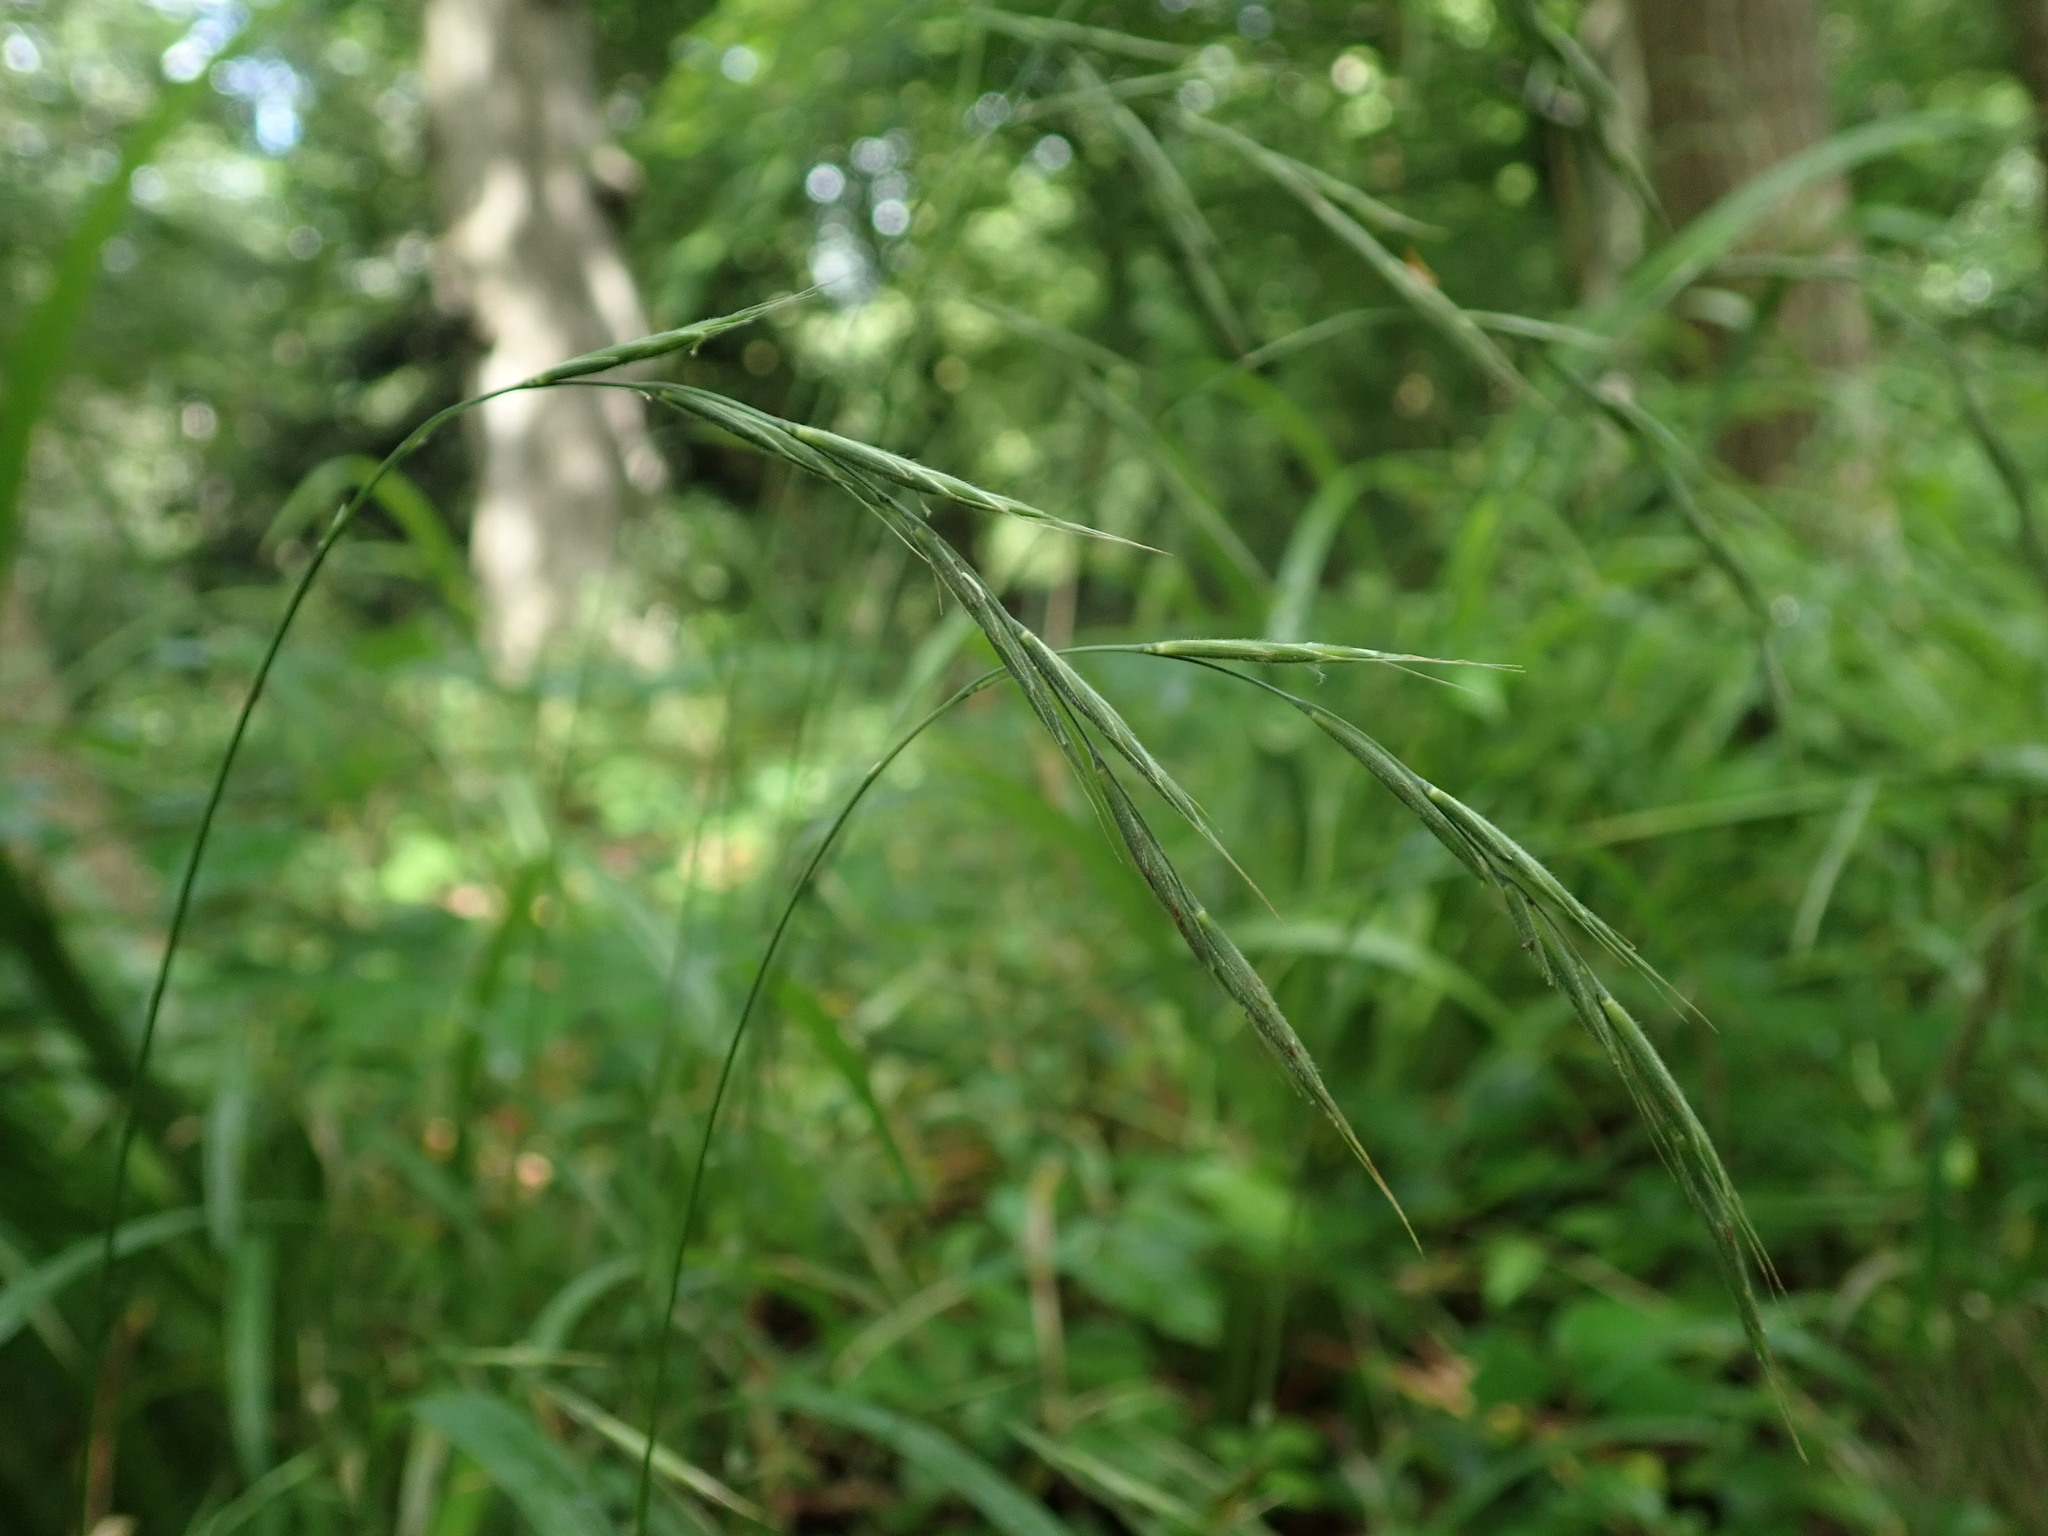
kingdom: Plantae
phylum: Tracheophyta
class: Liliopsida
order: Poales
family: Poaceae
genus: Brachypodium
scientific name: Brachypodium sylvaticum
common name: False-brome
